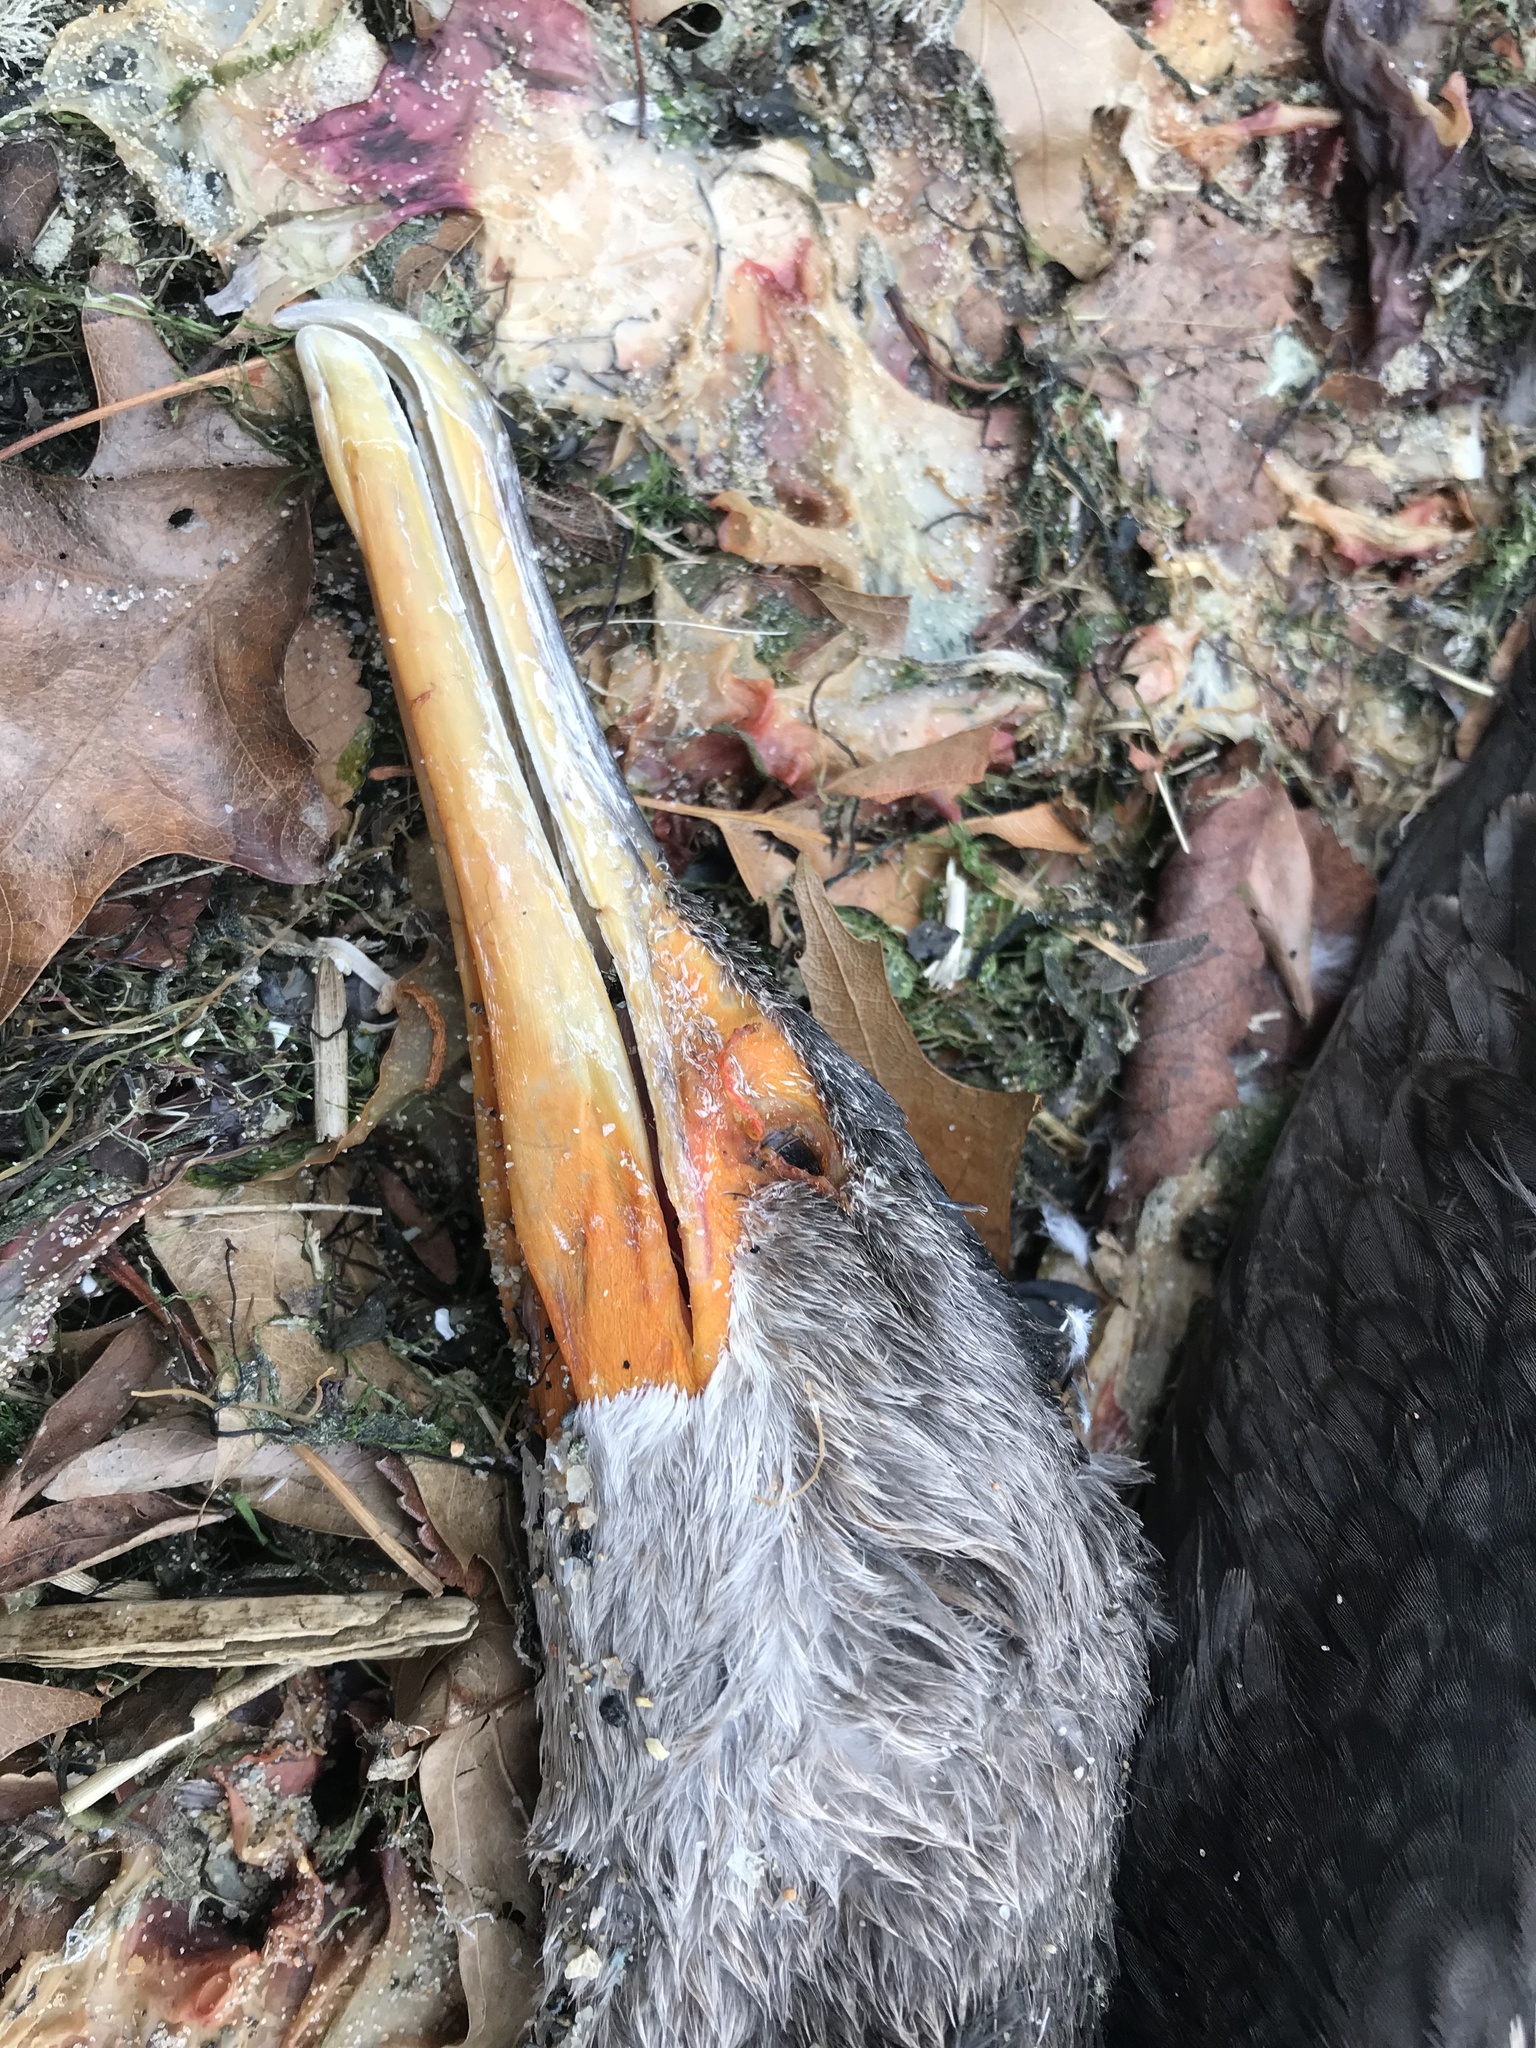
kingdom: Animalia
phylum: Chordata
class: Aves
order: Suliformes
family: Phalacrocoracidae
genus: Phalacrocorax
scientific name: Phalacrocorax auritus
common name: Double-crested cormorant
